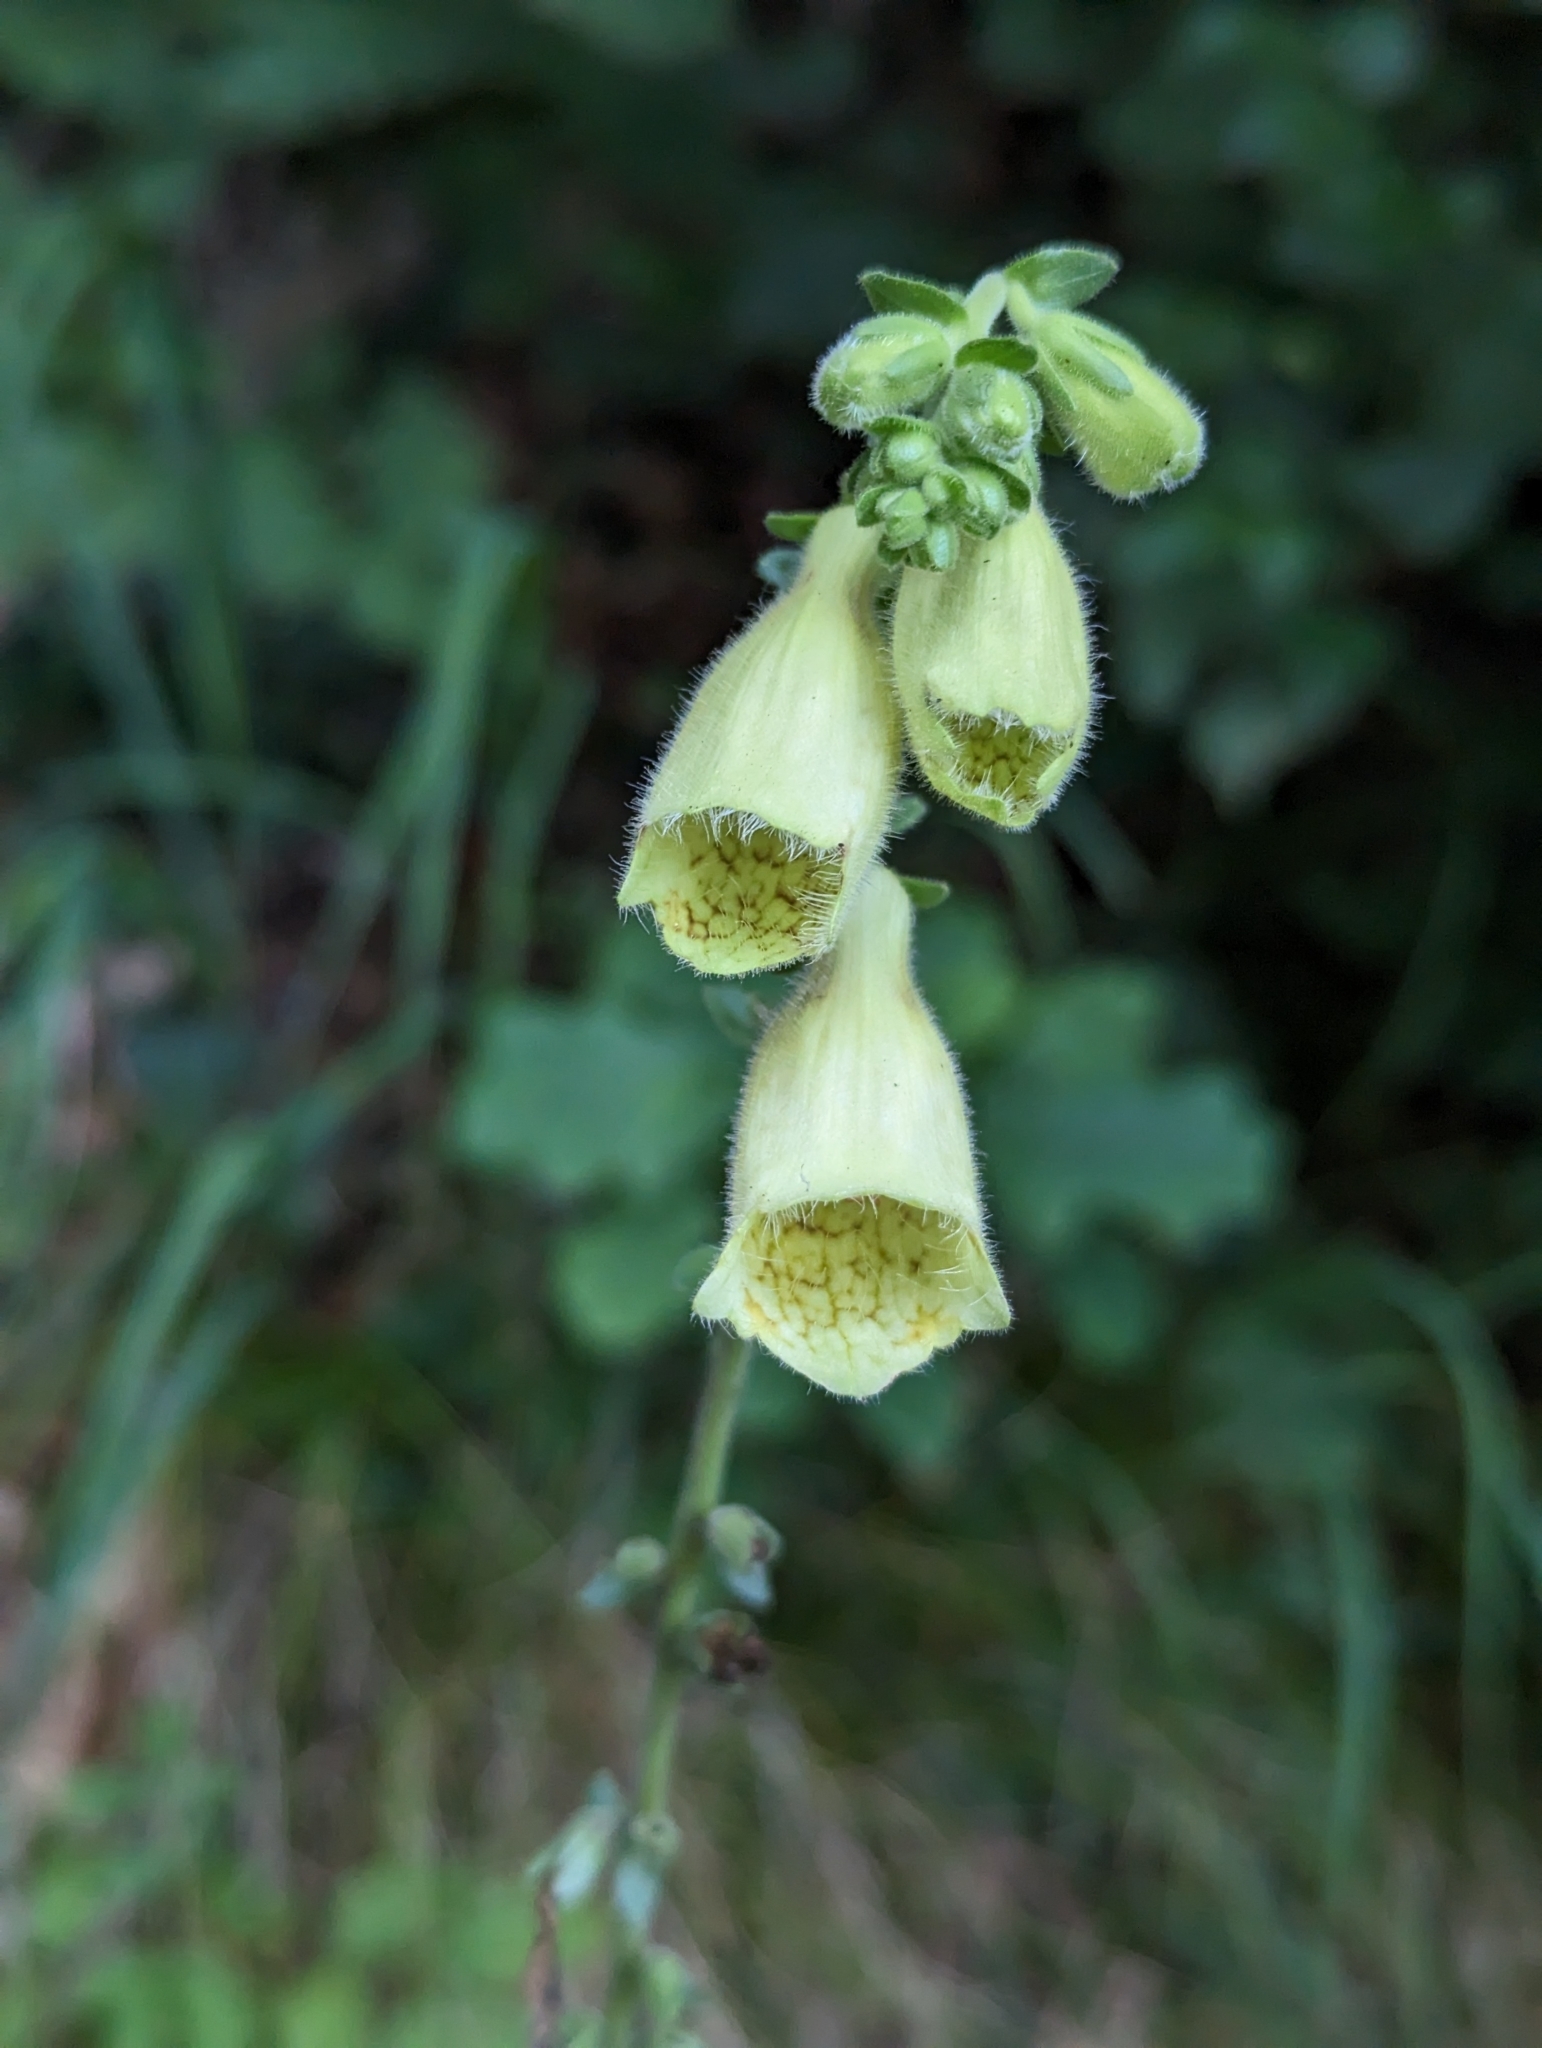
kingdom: Plantae
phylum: Tracheophyta
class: Magnoliopsida
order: Lamiales
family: Plantaginaceae
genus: Digitalis
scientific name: Digitalis grandiflora
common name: Yellow foxglove
